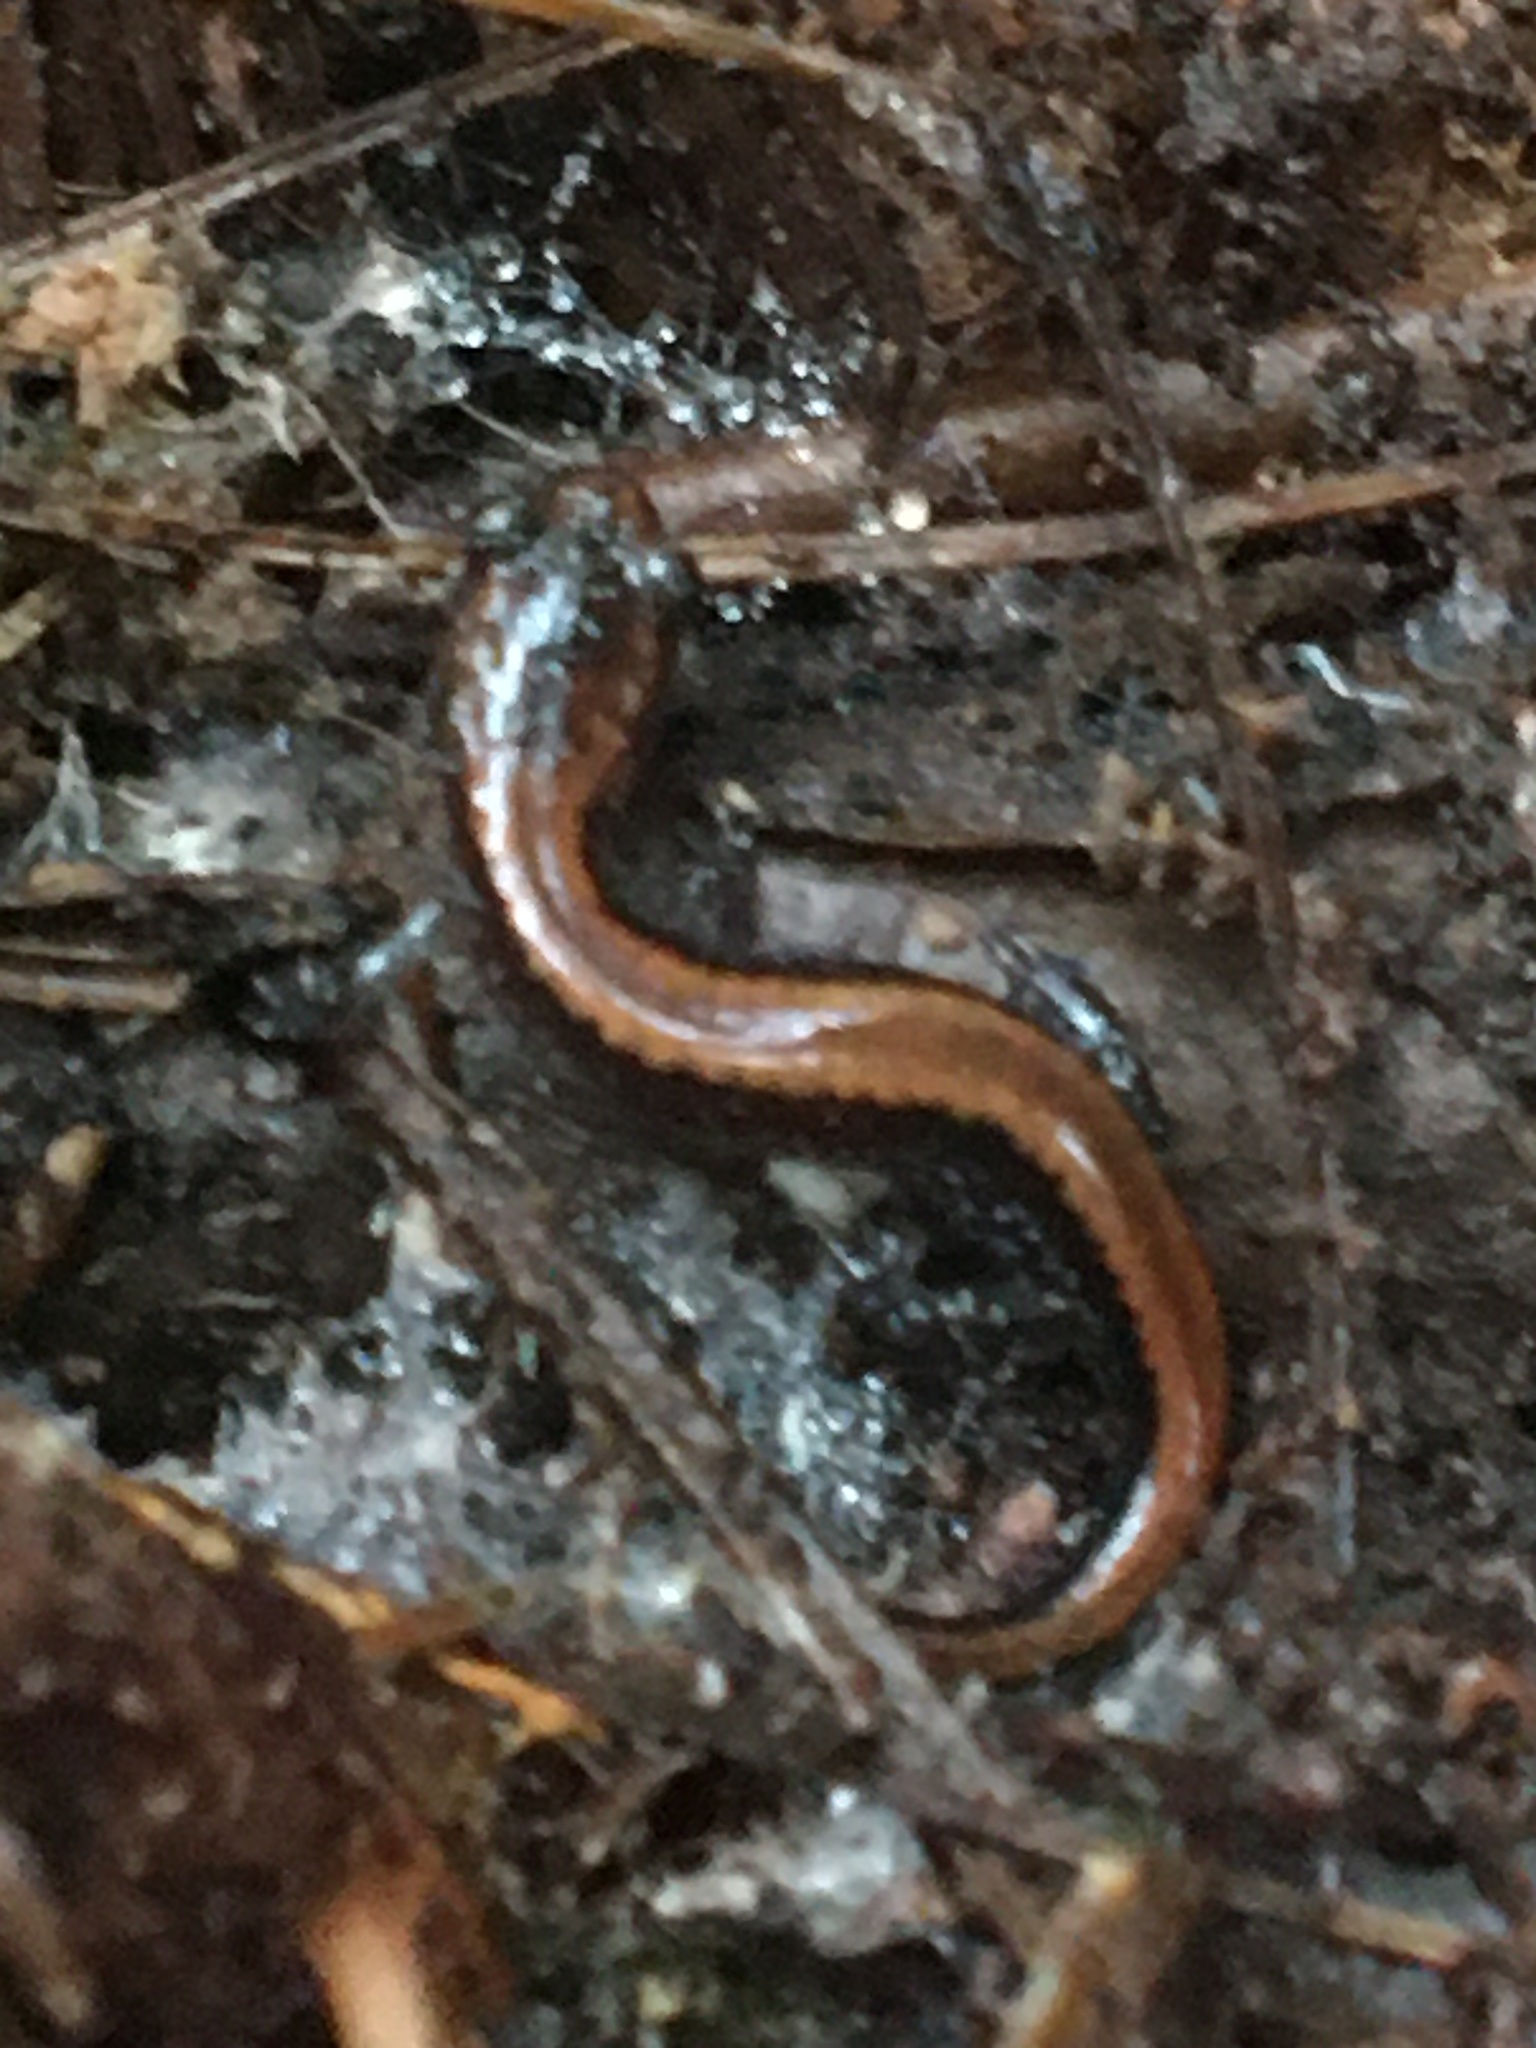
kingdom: Animalia
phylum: Chordata
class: Amphibia
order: Caudata
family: Plethodontidae
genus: Plethodon
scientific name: Plethodon cinereus
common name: Redback salamander
